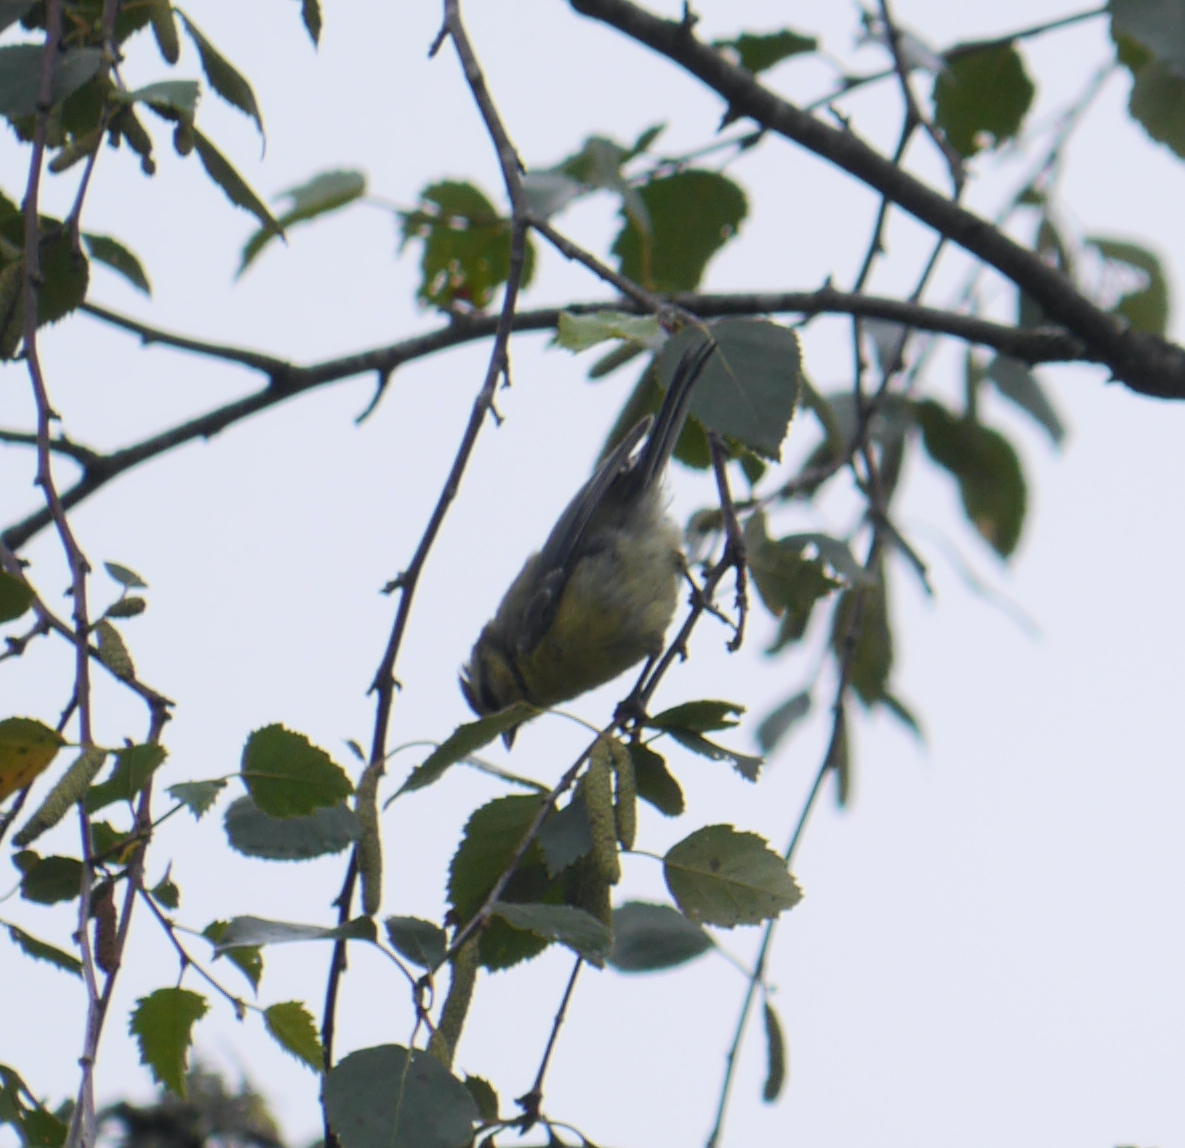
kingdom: Animalia
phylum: Chordata
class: Aves
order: Passeriformes
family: Paridae
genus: Cyanistes
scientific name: Cyanistes caeruleus
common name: Eurasian blue tit
